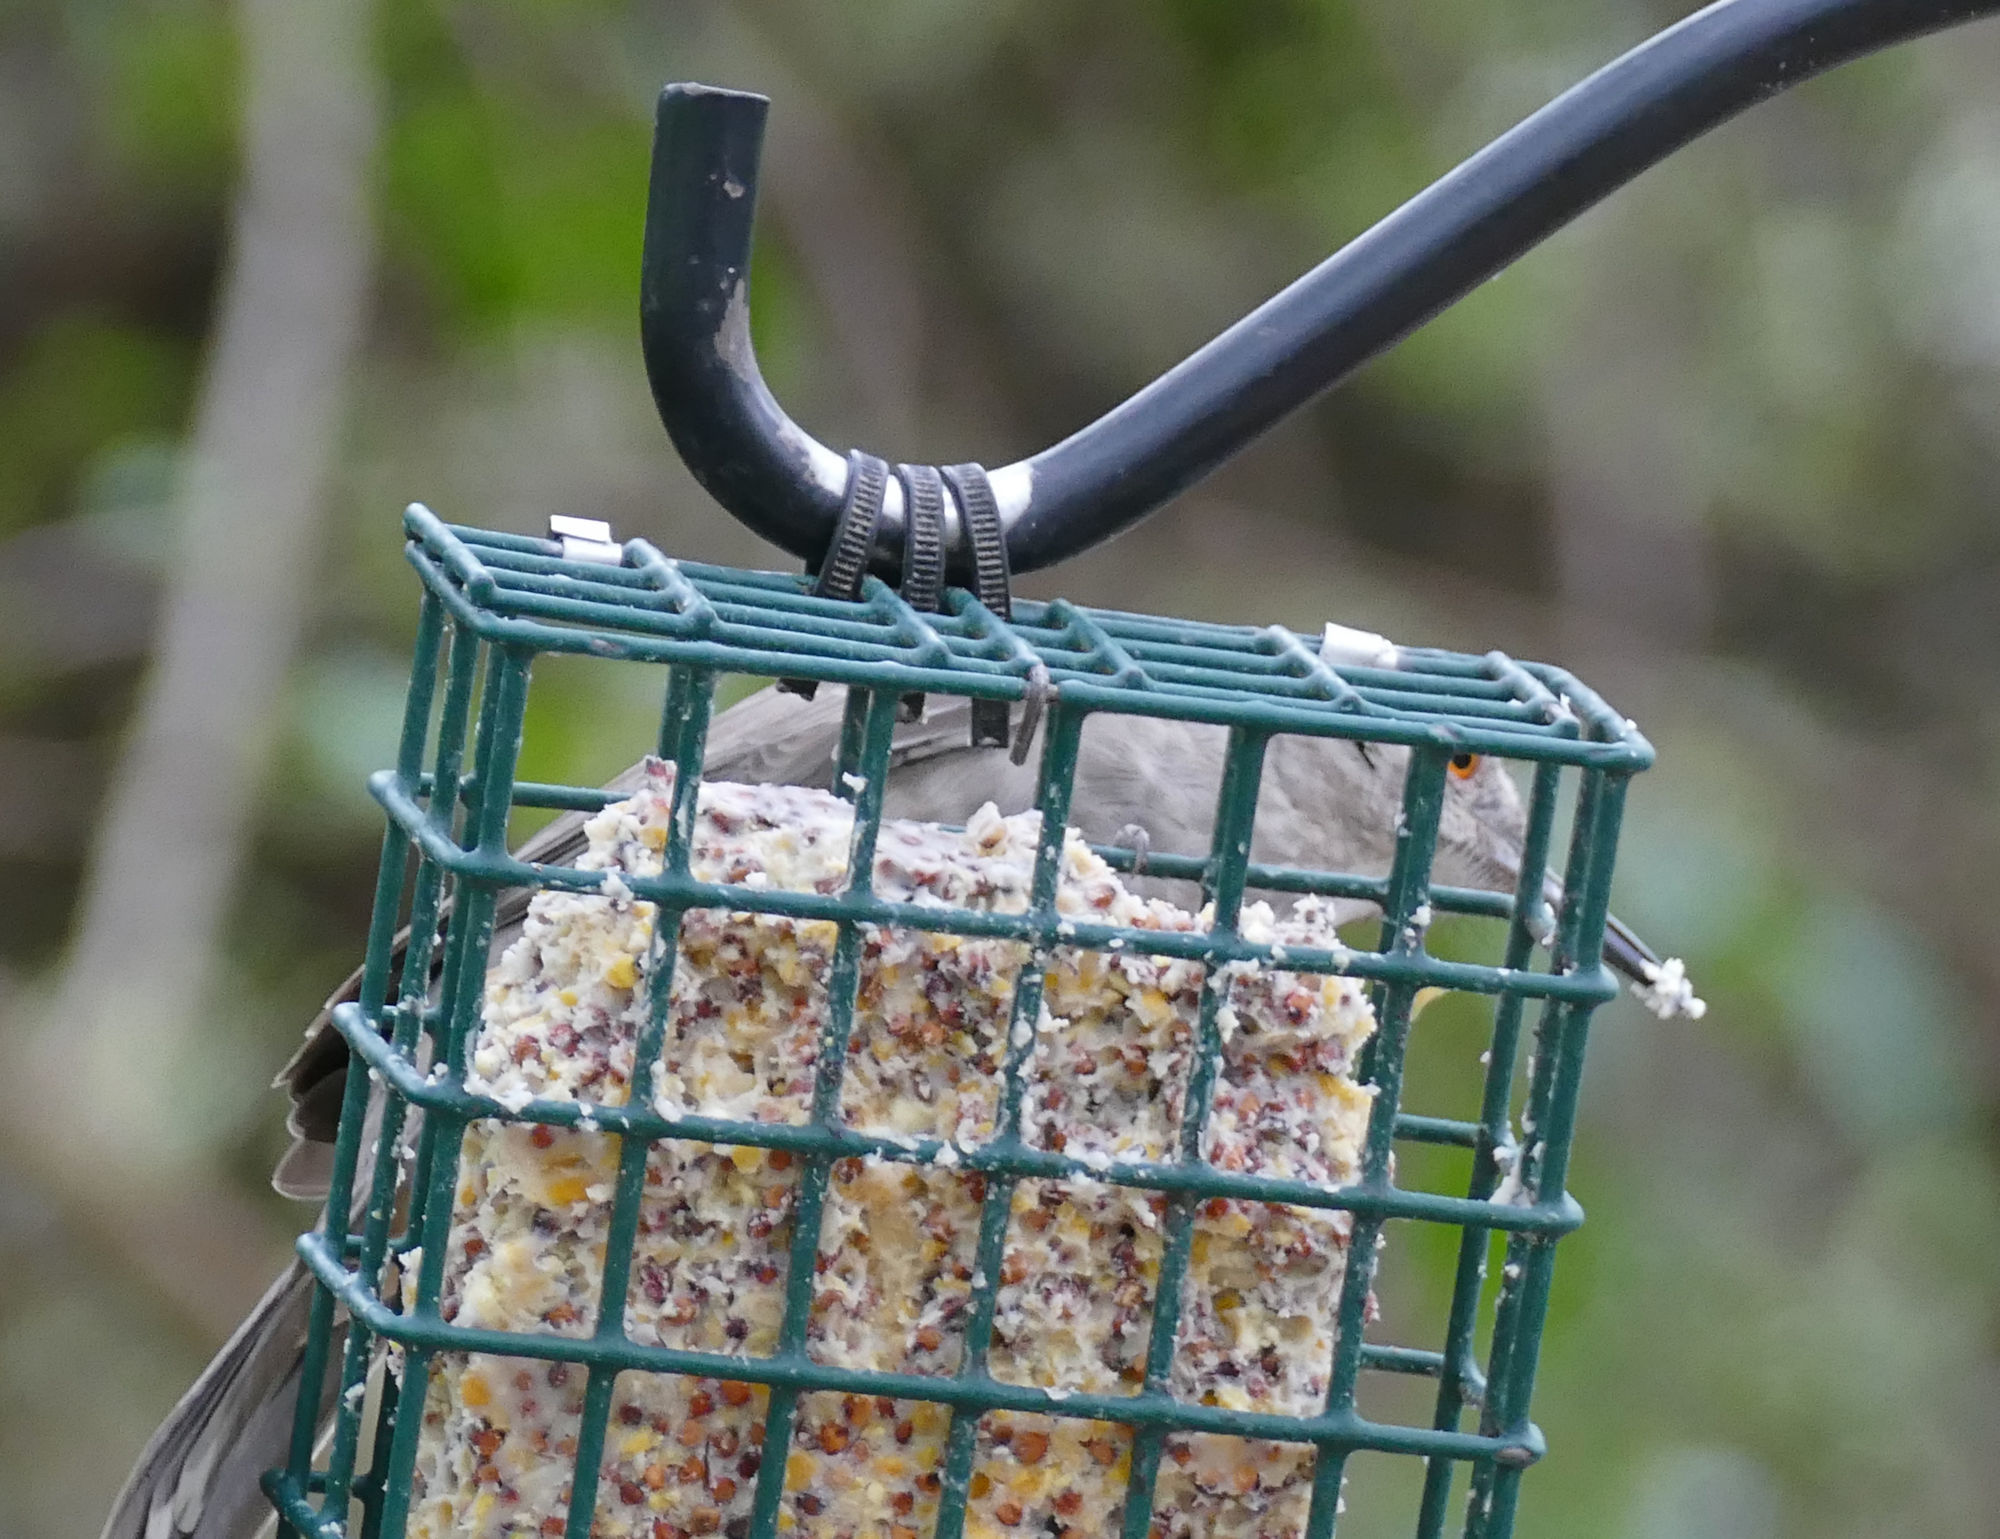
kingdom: Animalia
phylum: Chordata
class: Aves
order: Passeriformes
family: Mimidae
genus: Toxostoma
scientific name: Toxostoma curvirostre
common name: Curve-billed thrasher
